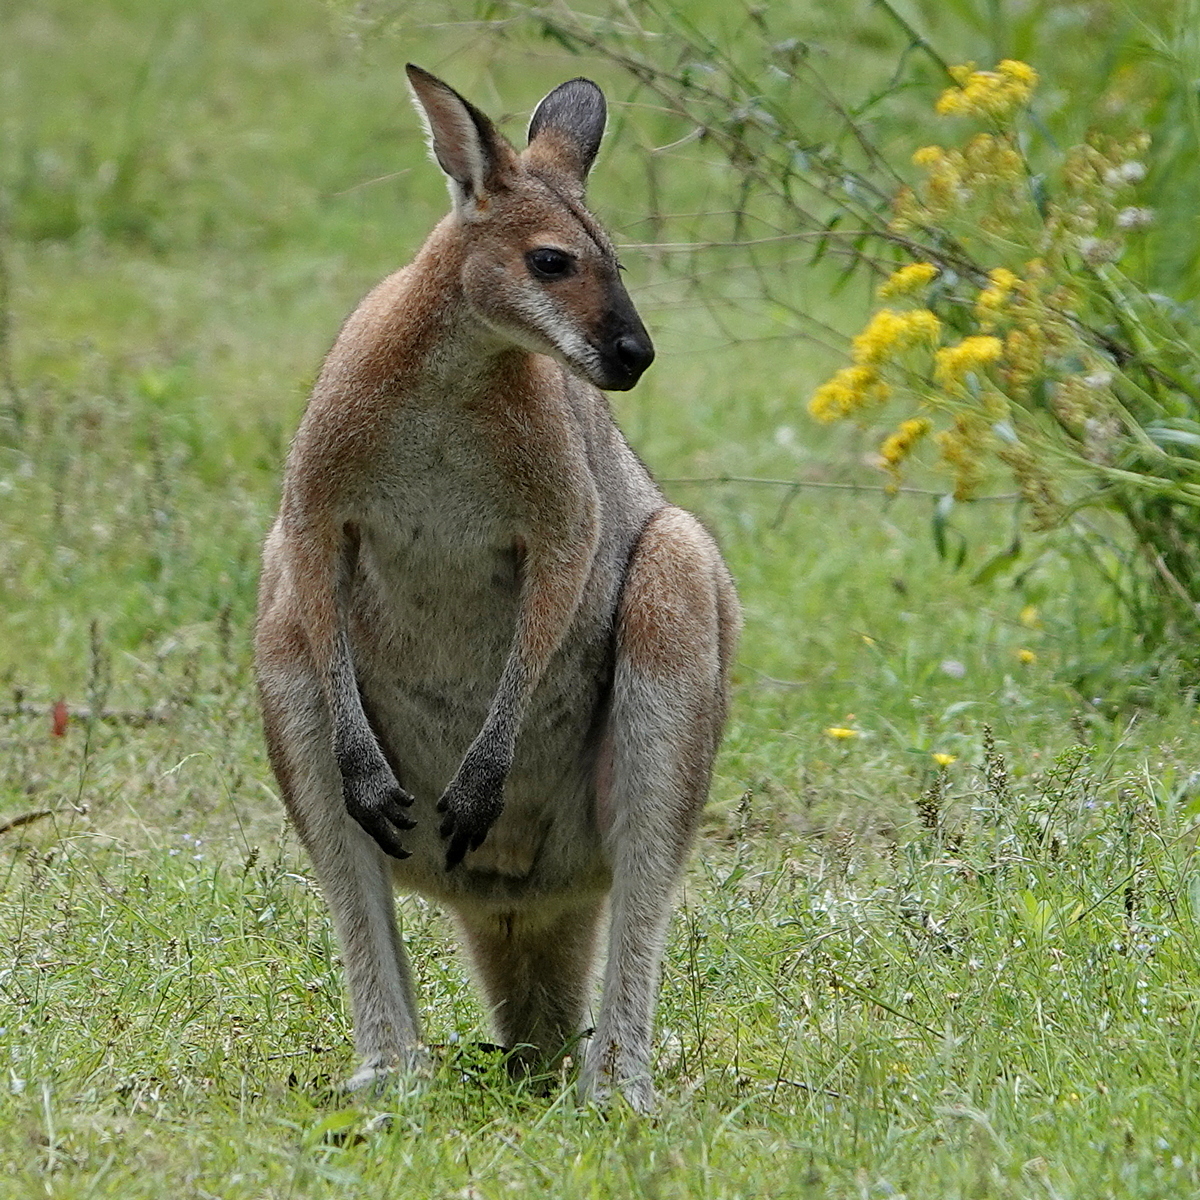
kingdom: Animalia
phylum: Chordata
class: Mammalia
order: Diprotodontia
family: Macropodidae
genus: Notamacropus
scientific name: Notamacropus rufogriseus
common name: Red-necked wallaby
